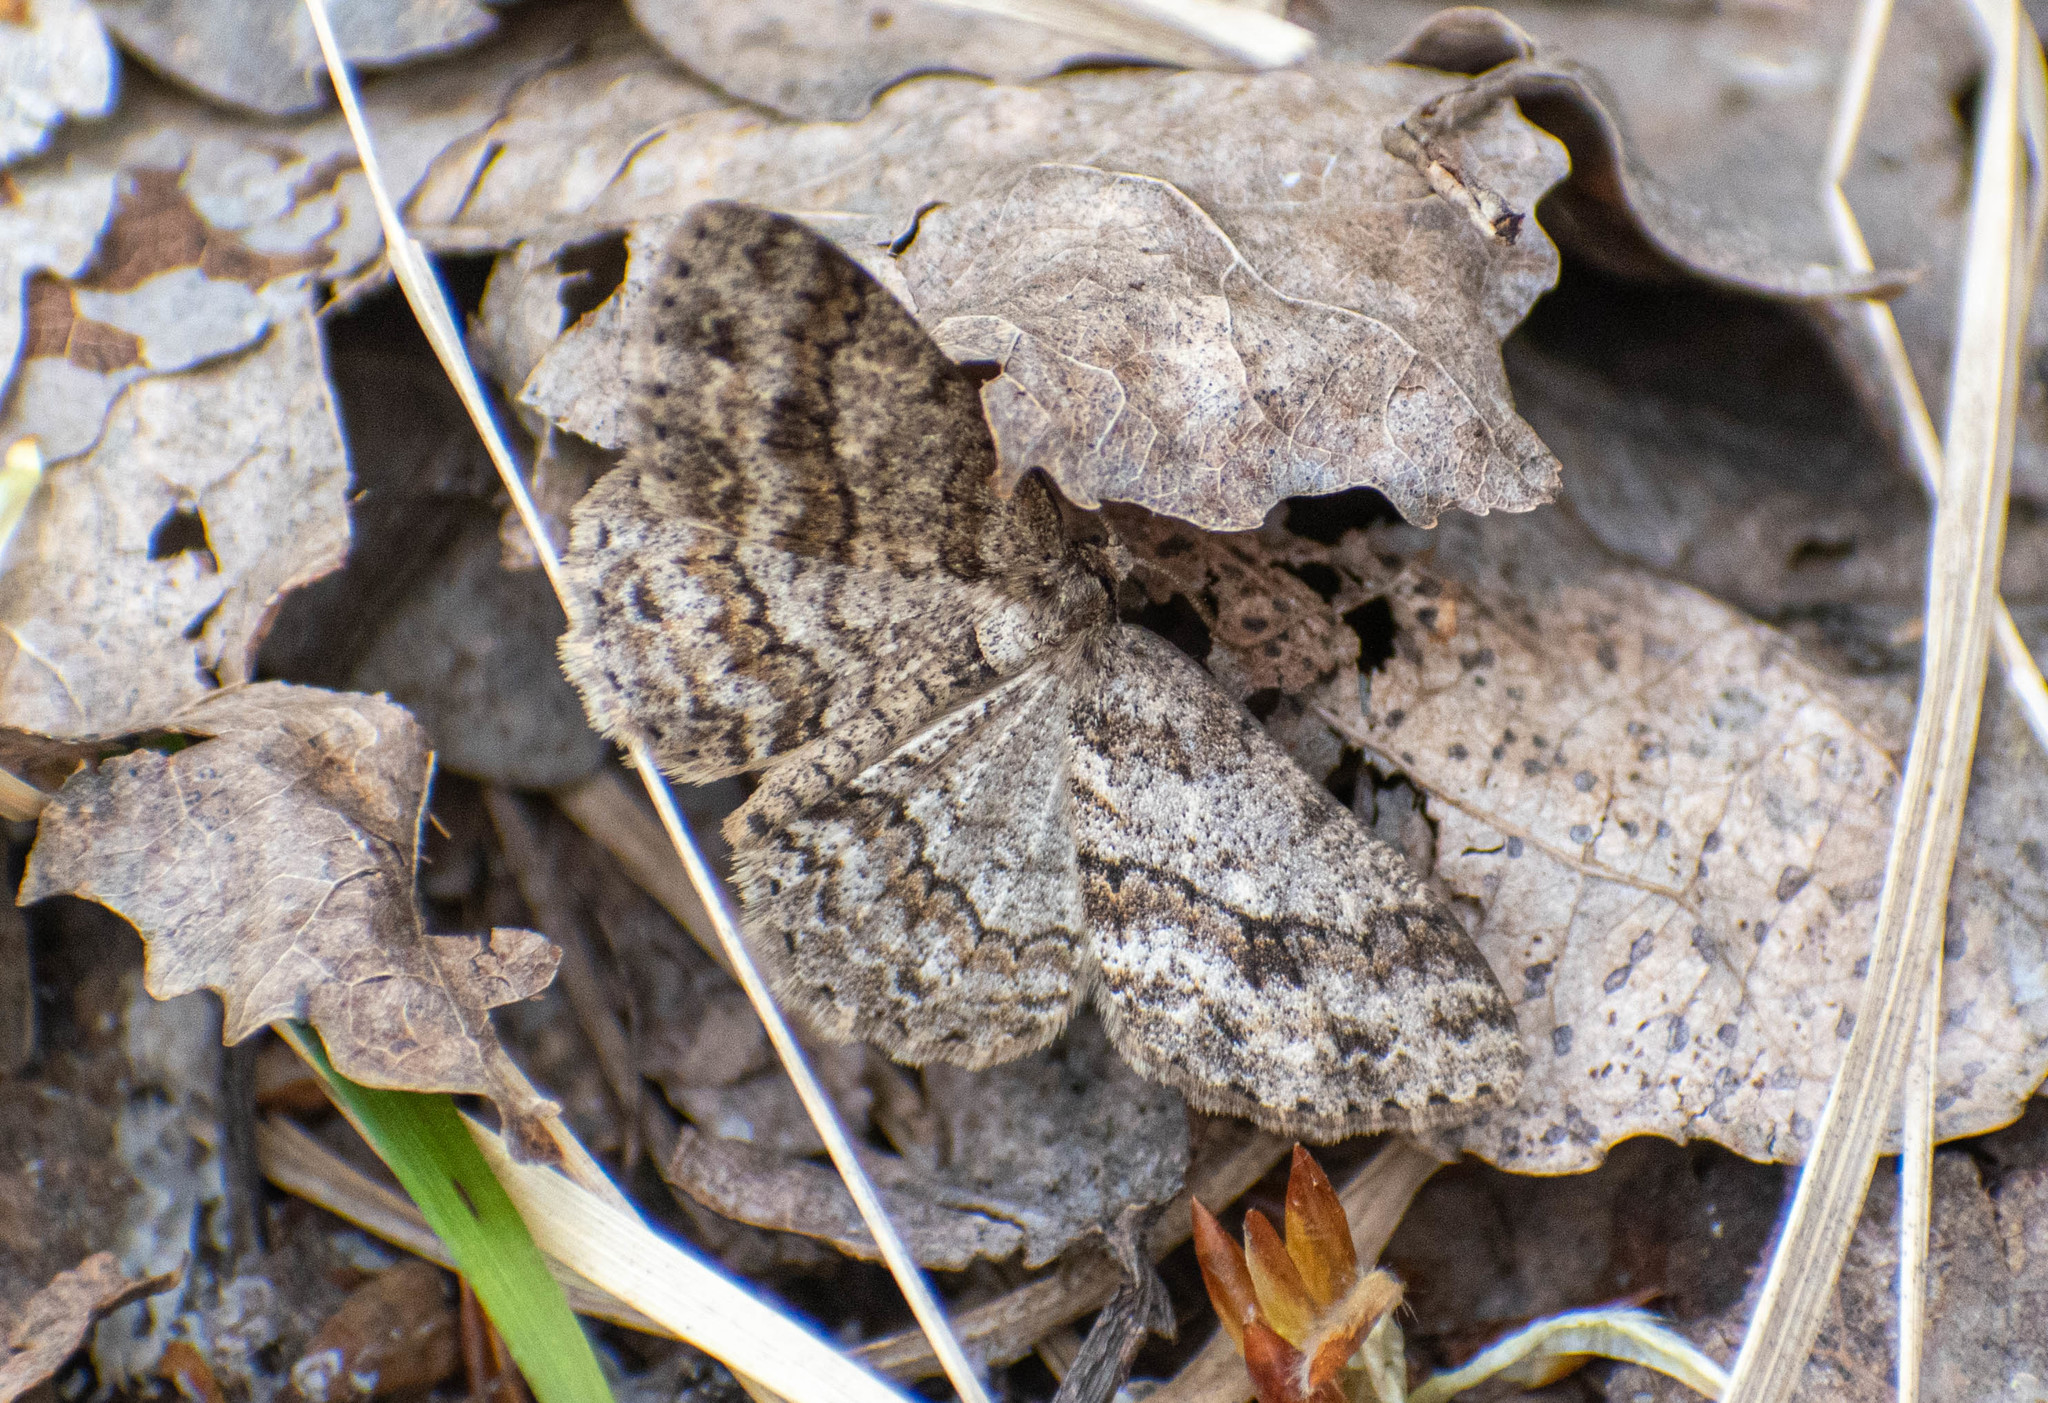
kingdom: Animalia
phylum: Arthropoda
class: Insecta
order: Lepidoptera
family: Geometridae
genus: Ectropis
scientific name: Ectropis crepuscularia
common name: Engrailed
